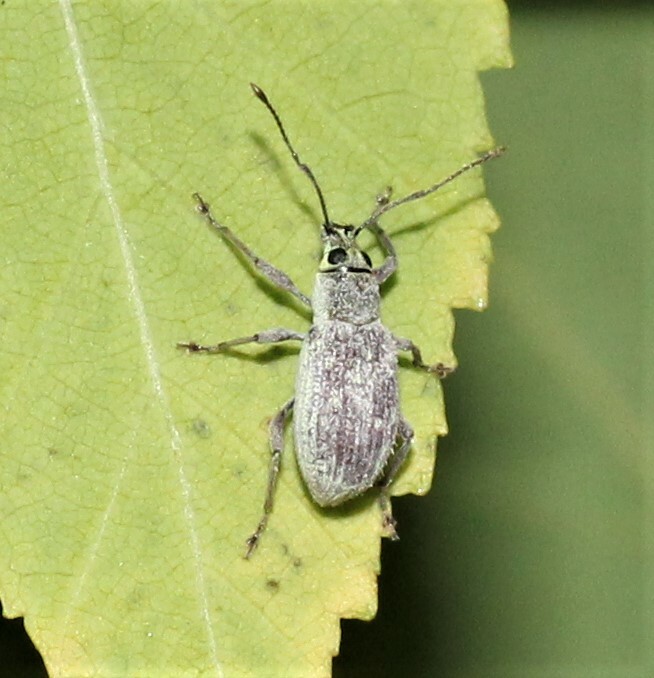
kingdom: Animalia
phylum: Arthropoda
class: Insecta
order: Coleoptera
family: Curculionidae
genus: Cyrtepistomus
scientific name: Cyrtepistomus castaneus
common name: Weevil
